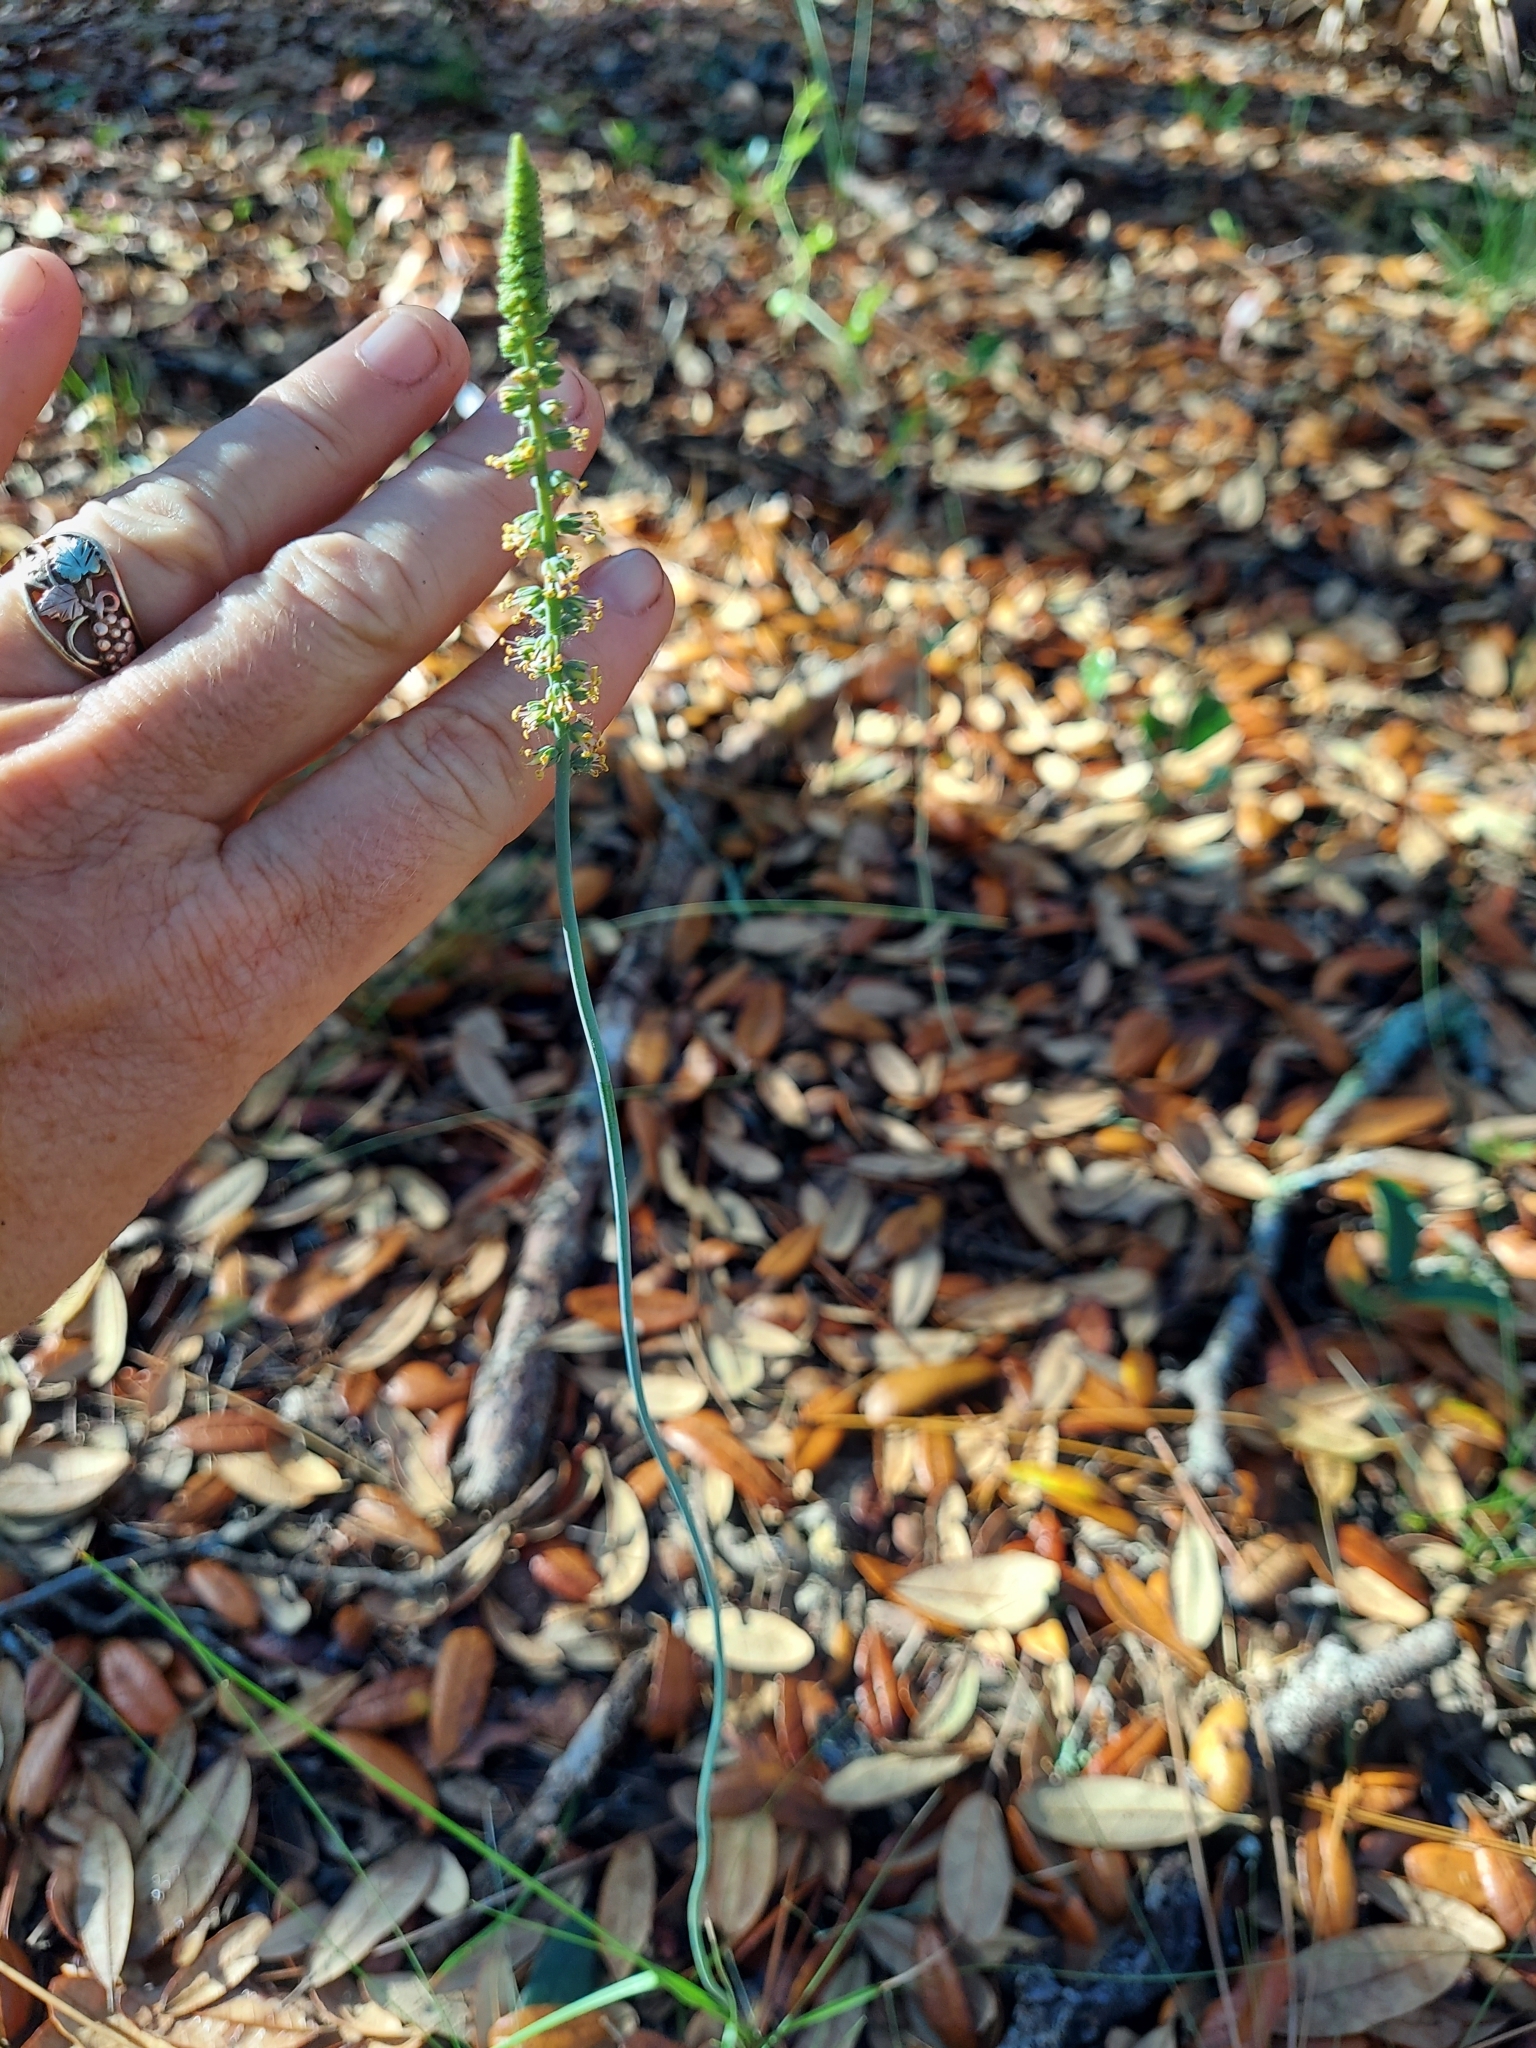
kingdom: Plantae
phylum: Tracheophyta
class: Liliopsida
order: Liliales
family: Melanthiaceae
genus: Schoenocaulon
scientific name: Schoenocaulon dubium
